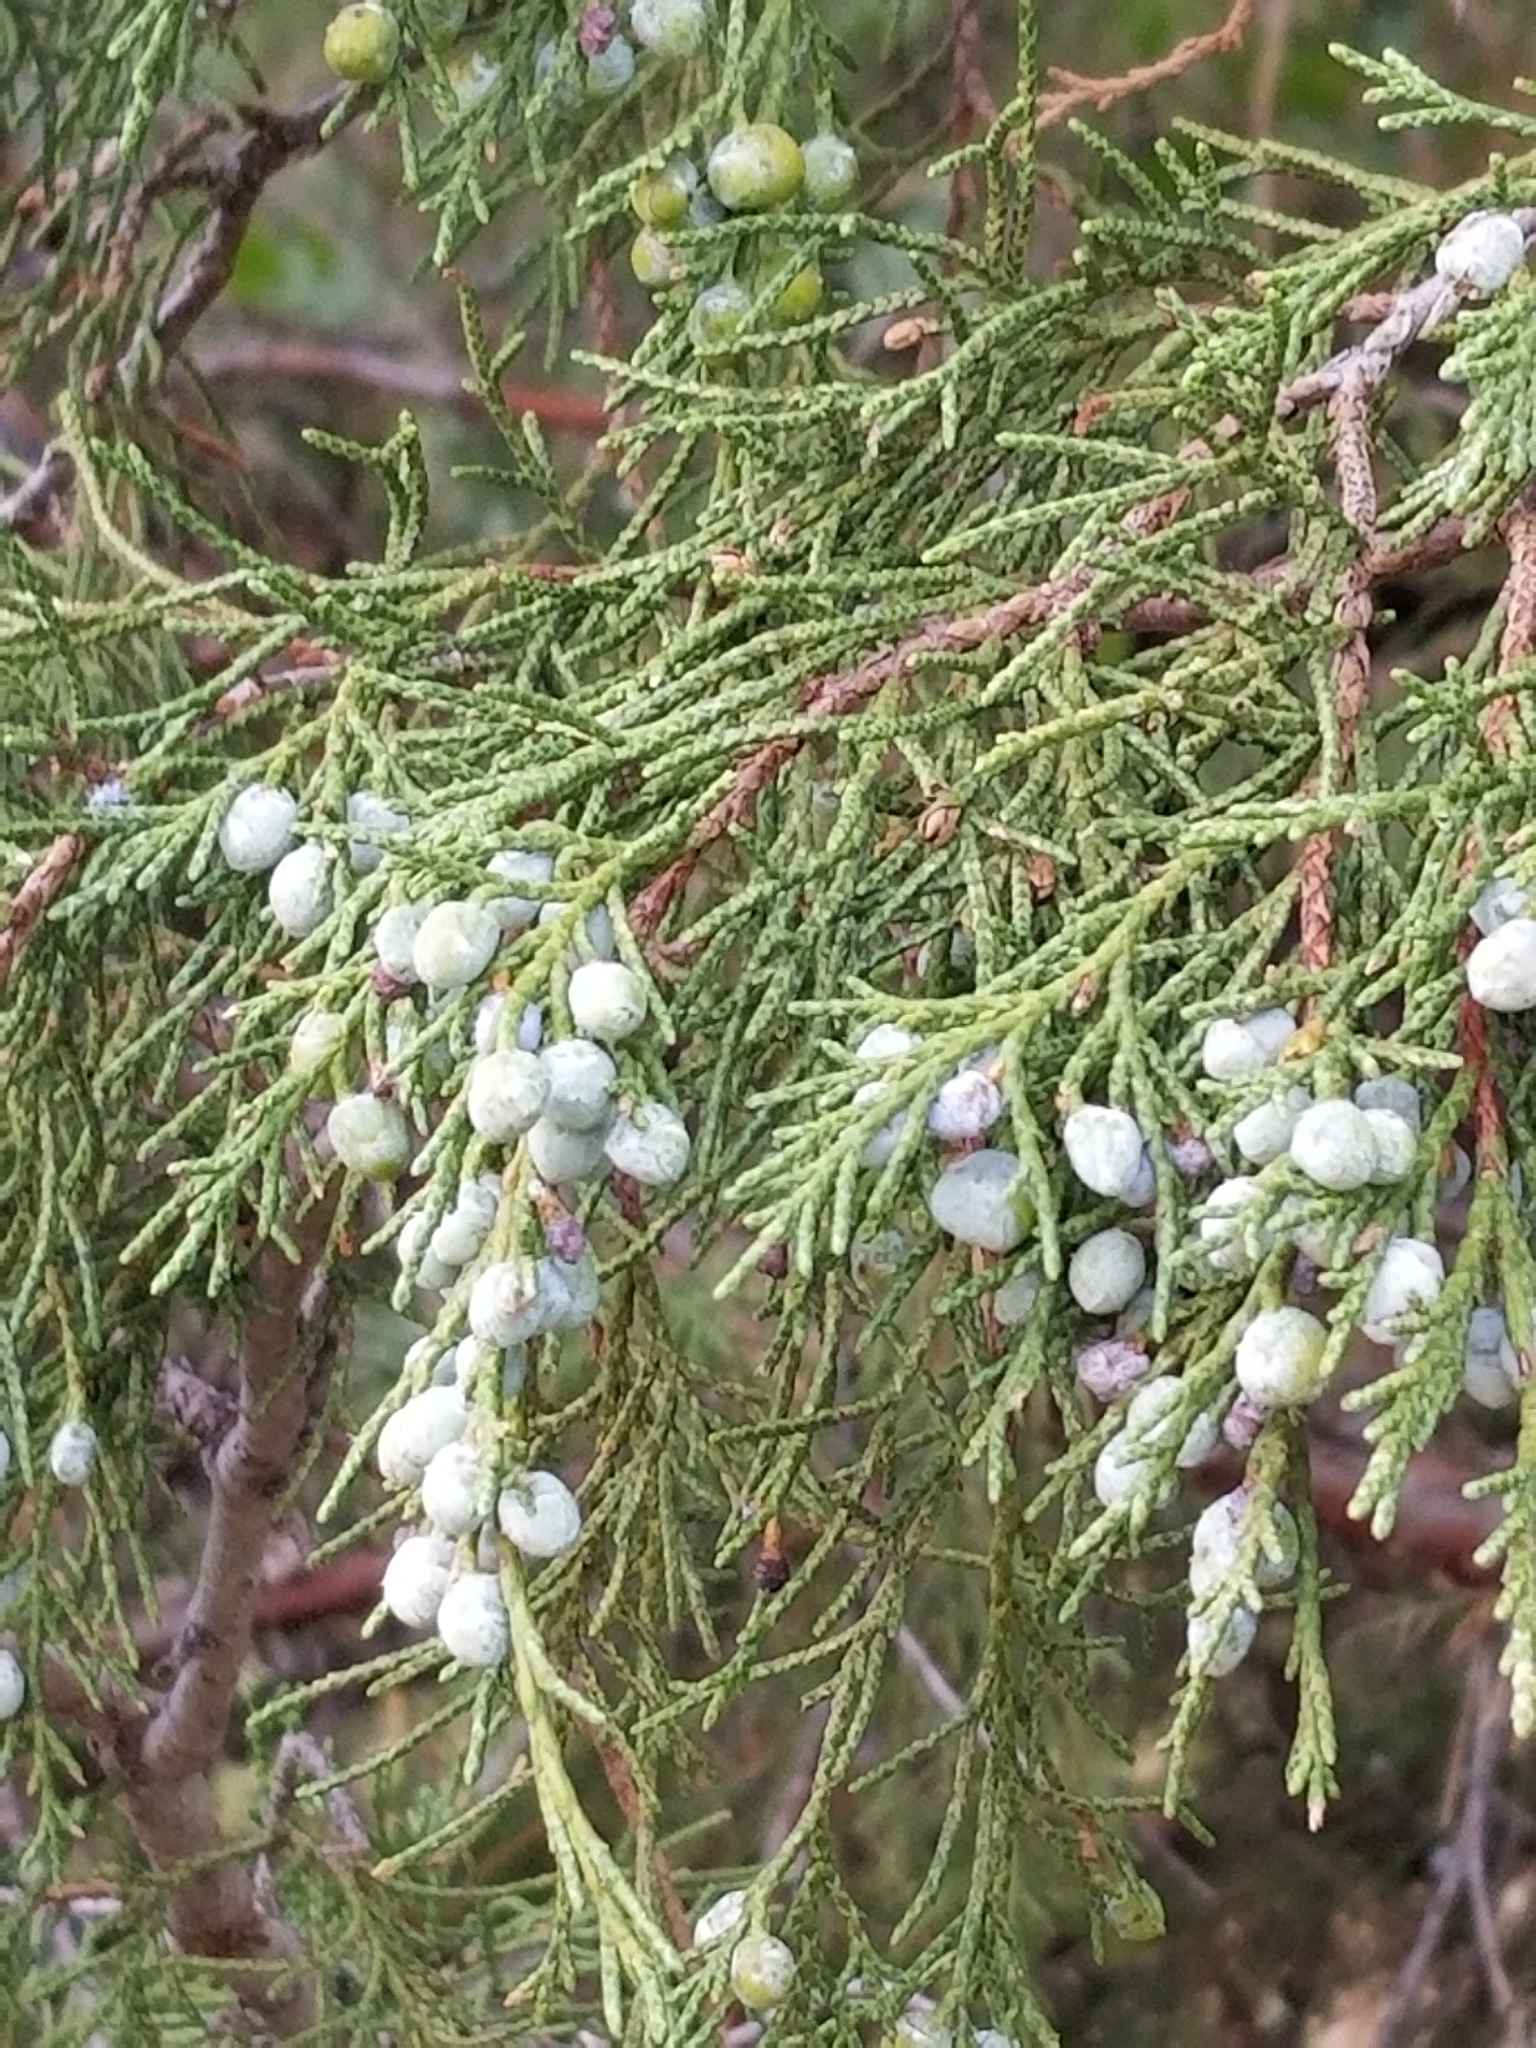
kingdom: Plantae
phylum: Tracheophyta
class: Pinopsida
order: Pinales
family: Cupressaceae
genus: Juniperus
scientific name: Juniperus osteosperma
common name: Utah juniper
